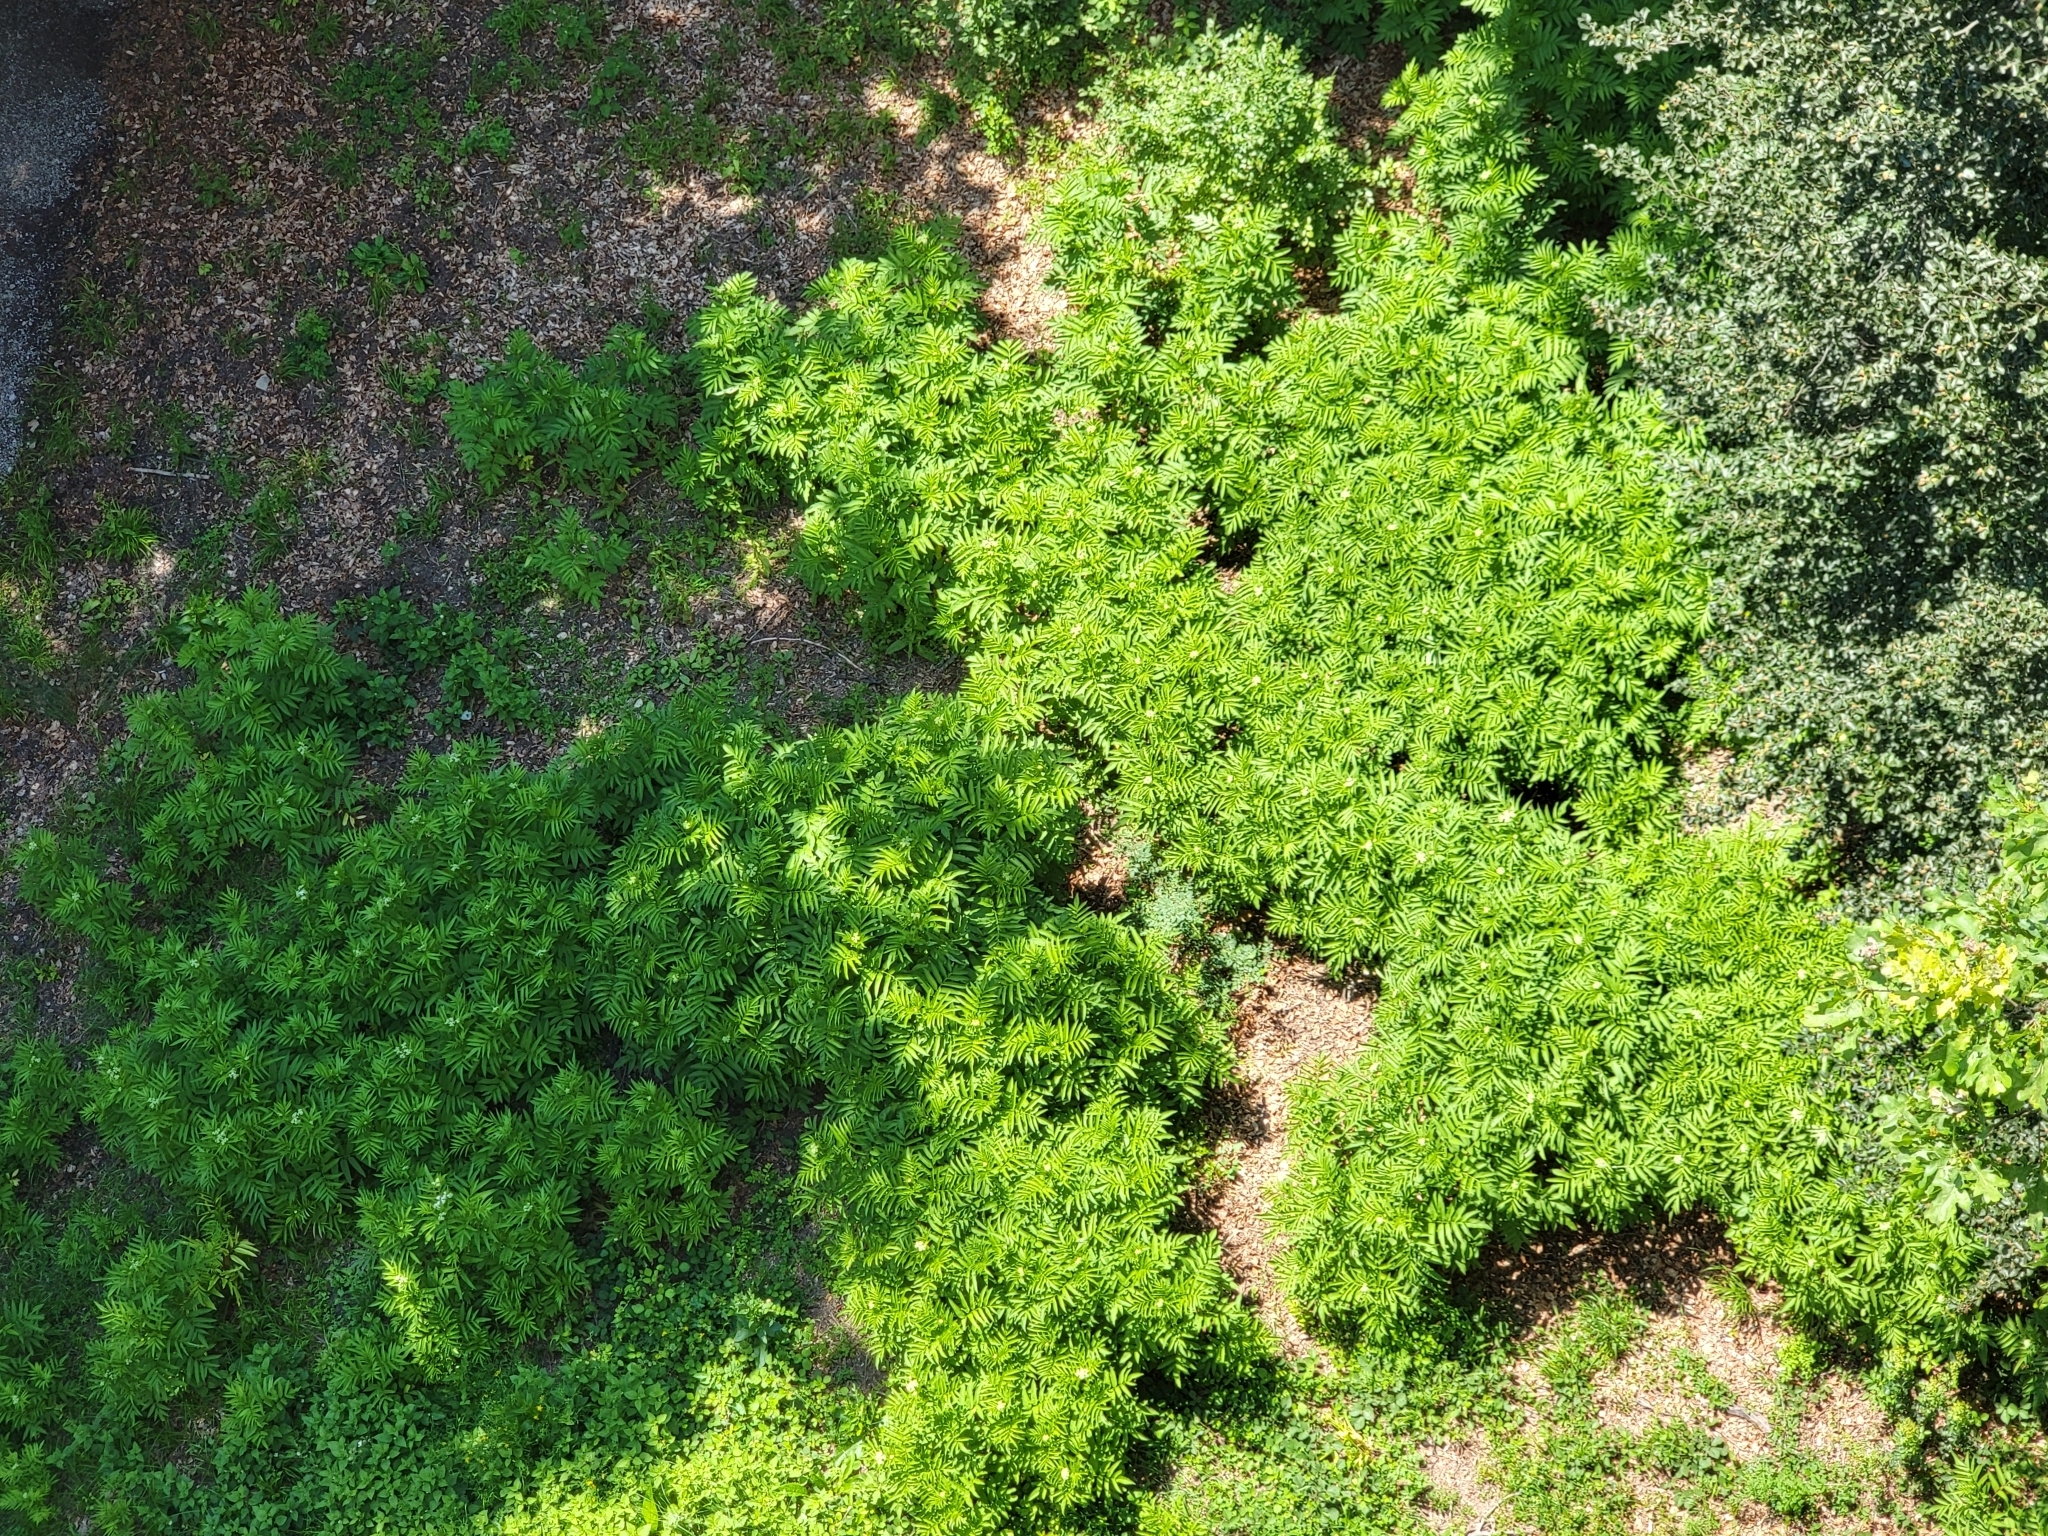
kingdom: Plantae
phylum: Tracheophyta
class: Magnoliopsida
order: Dipsacales
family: Viburnaceae
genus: Sambucus
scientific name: Sambucus ebulus
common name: Dwarf elder
